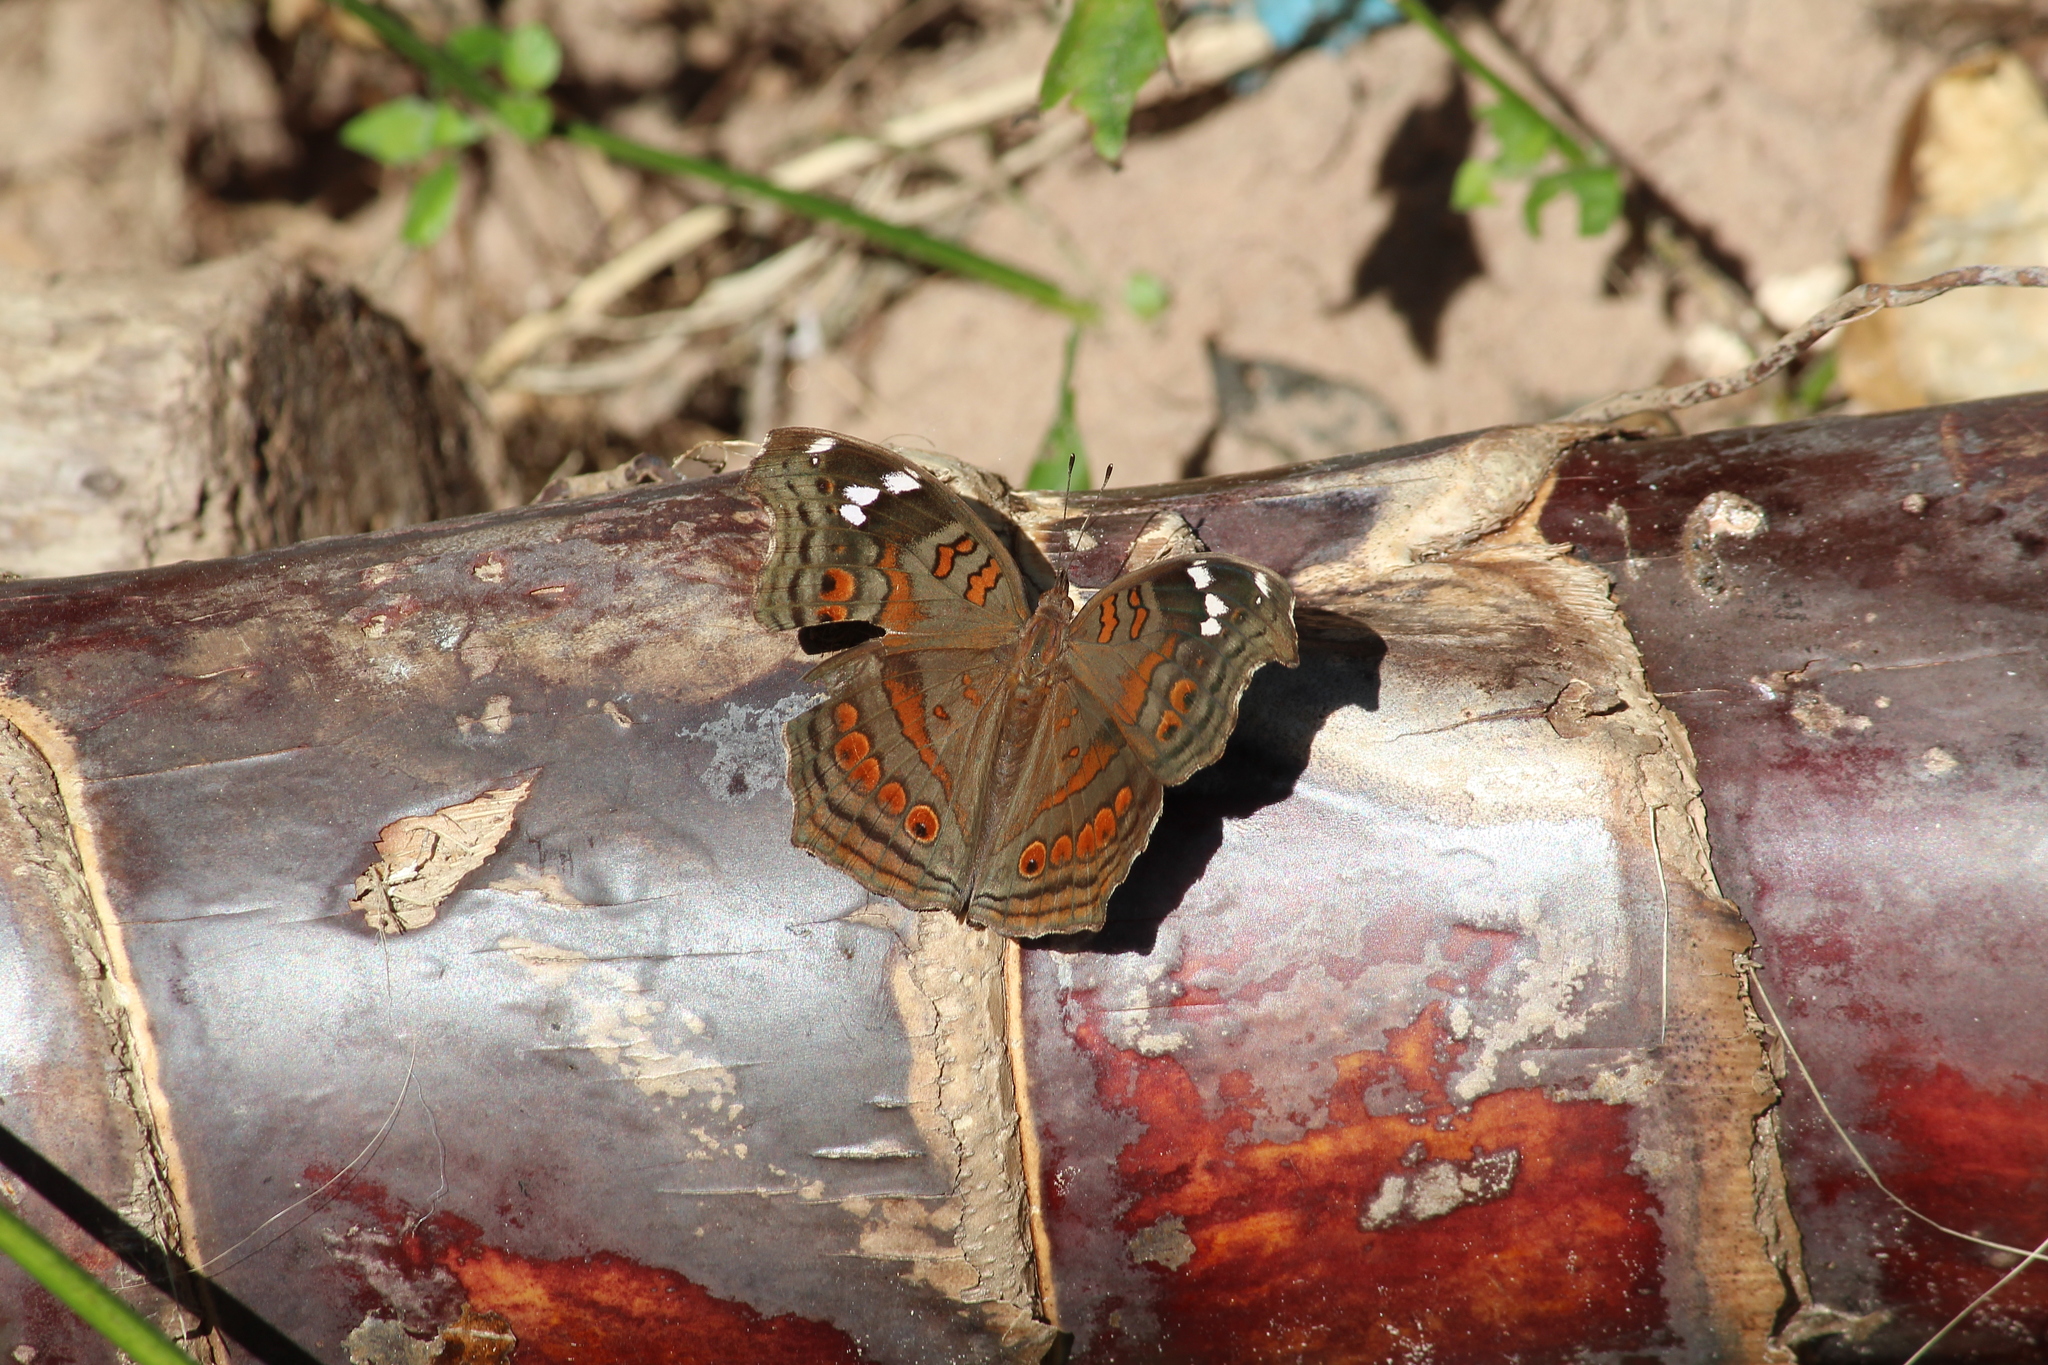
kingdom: Animalia
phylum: Arthropoda
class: Insecta
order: Lepidoptera
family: Nymphalidae
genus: Junonia
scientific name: Junonia natalica
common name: Brown pansy
